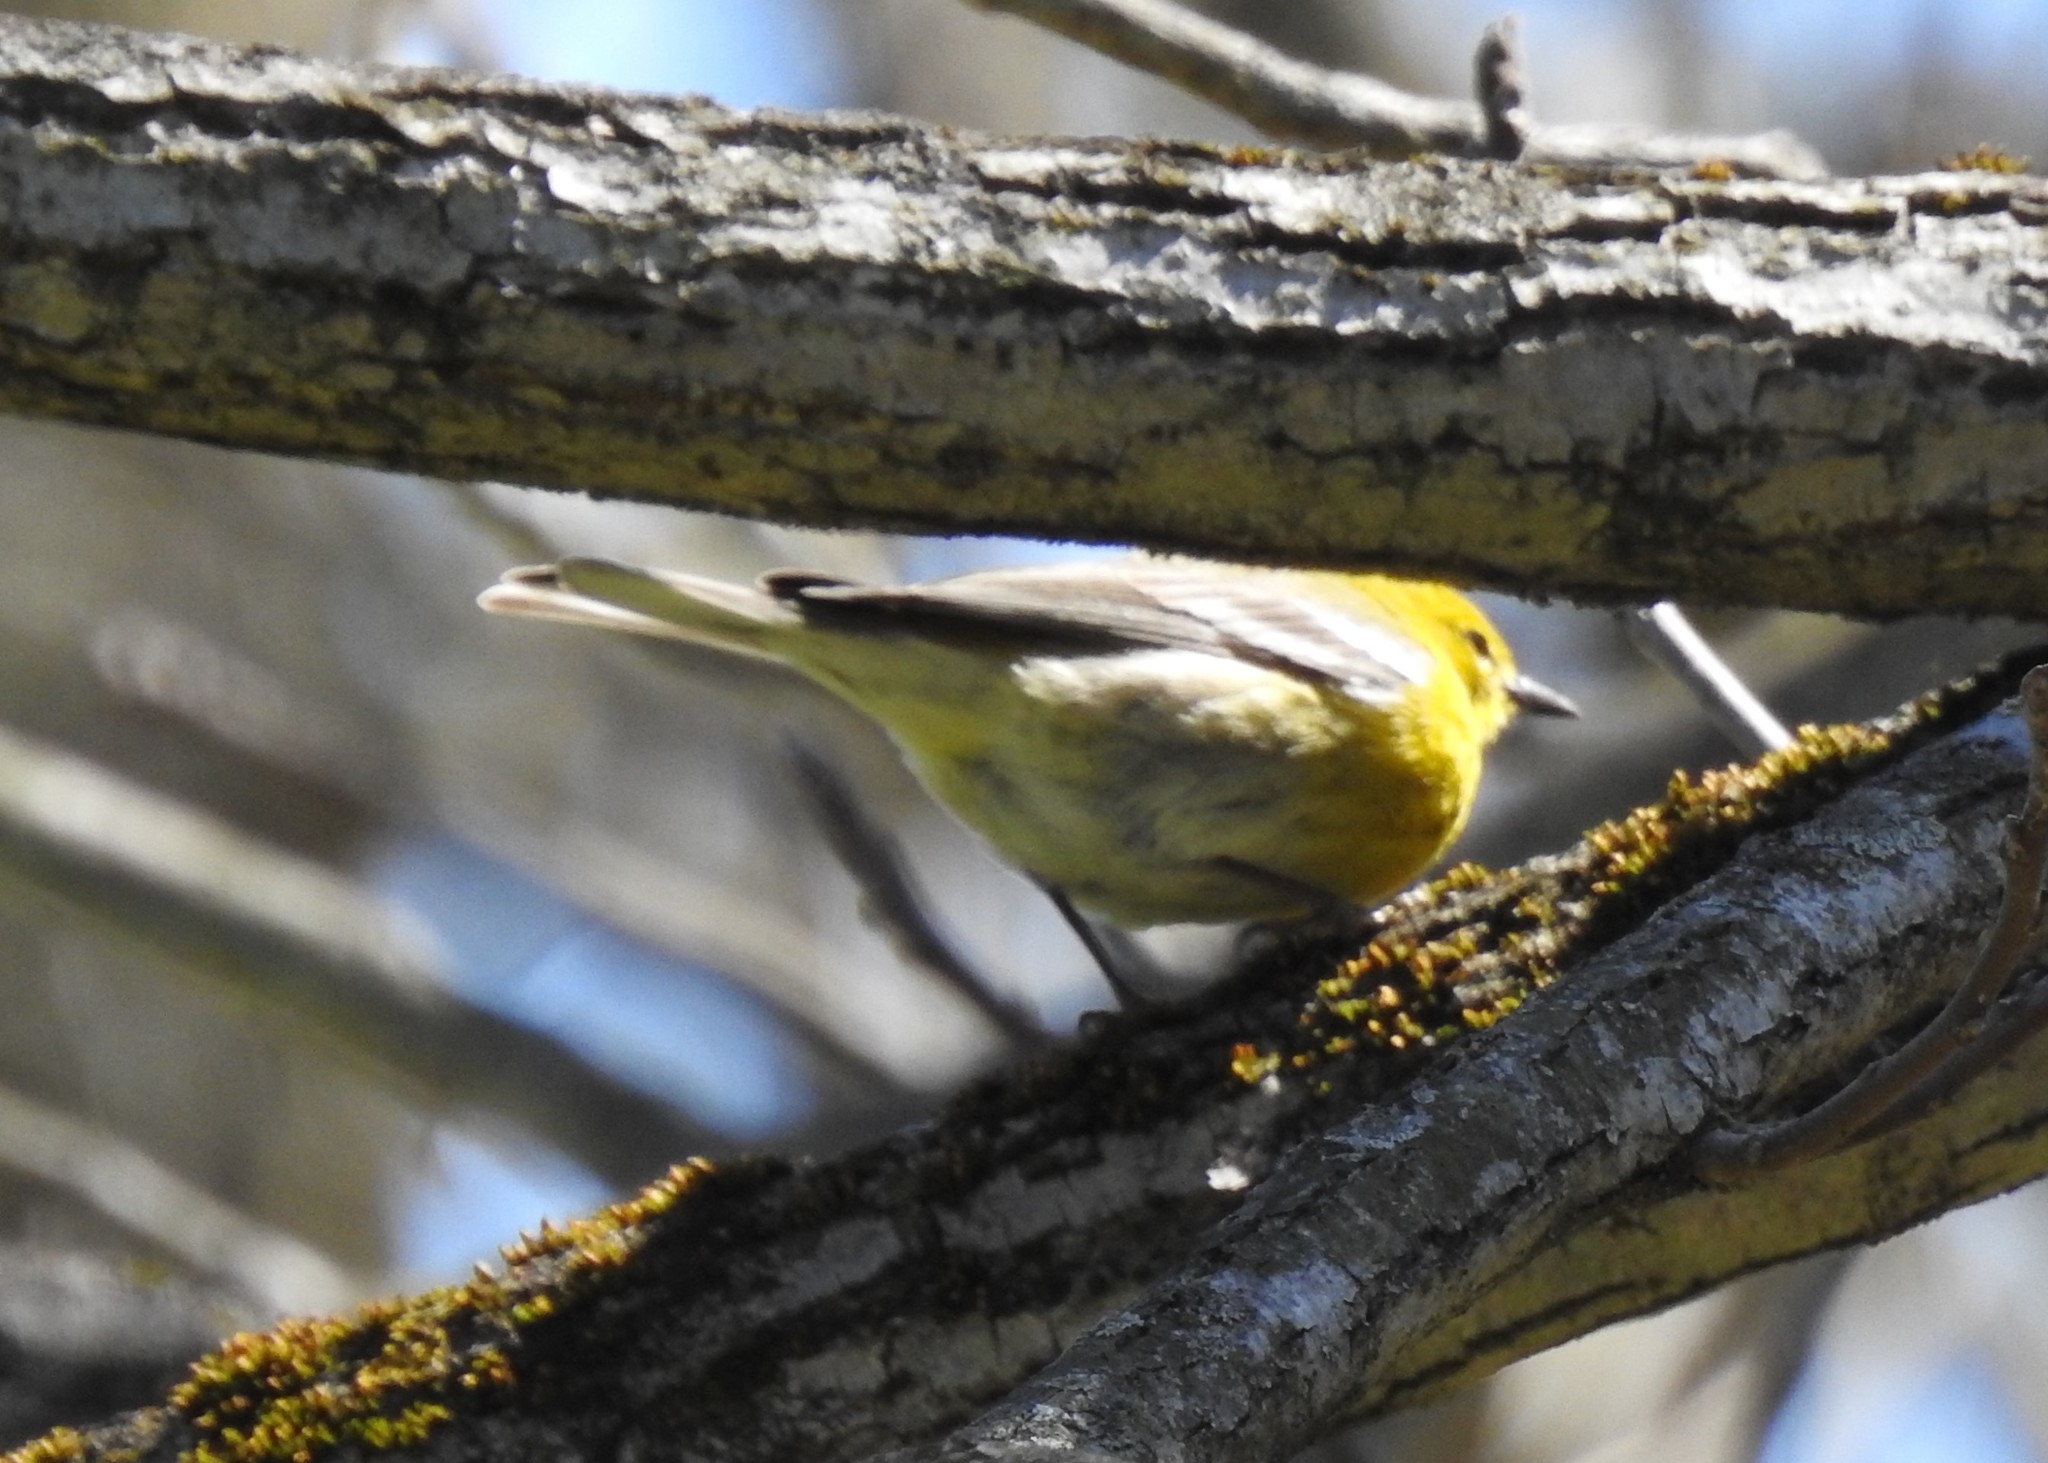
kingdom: Animalia
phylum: Chordata
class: Aves
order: Passeriformes
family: Parulidae
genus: Setophaga
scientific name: Setophaga pinus
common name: Pine warbler
